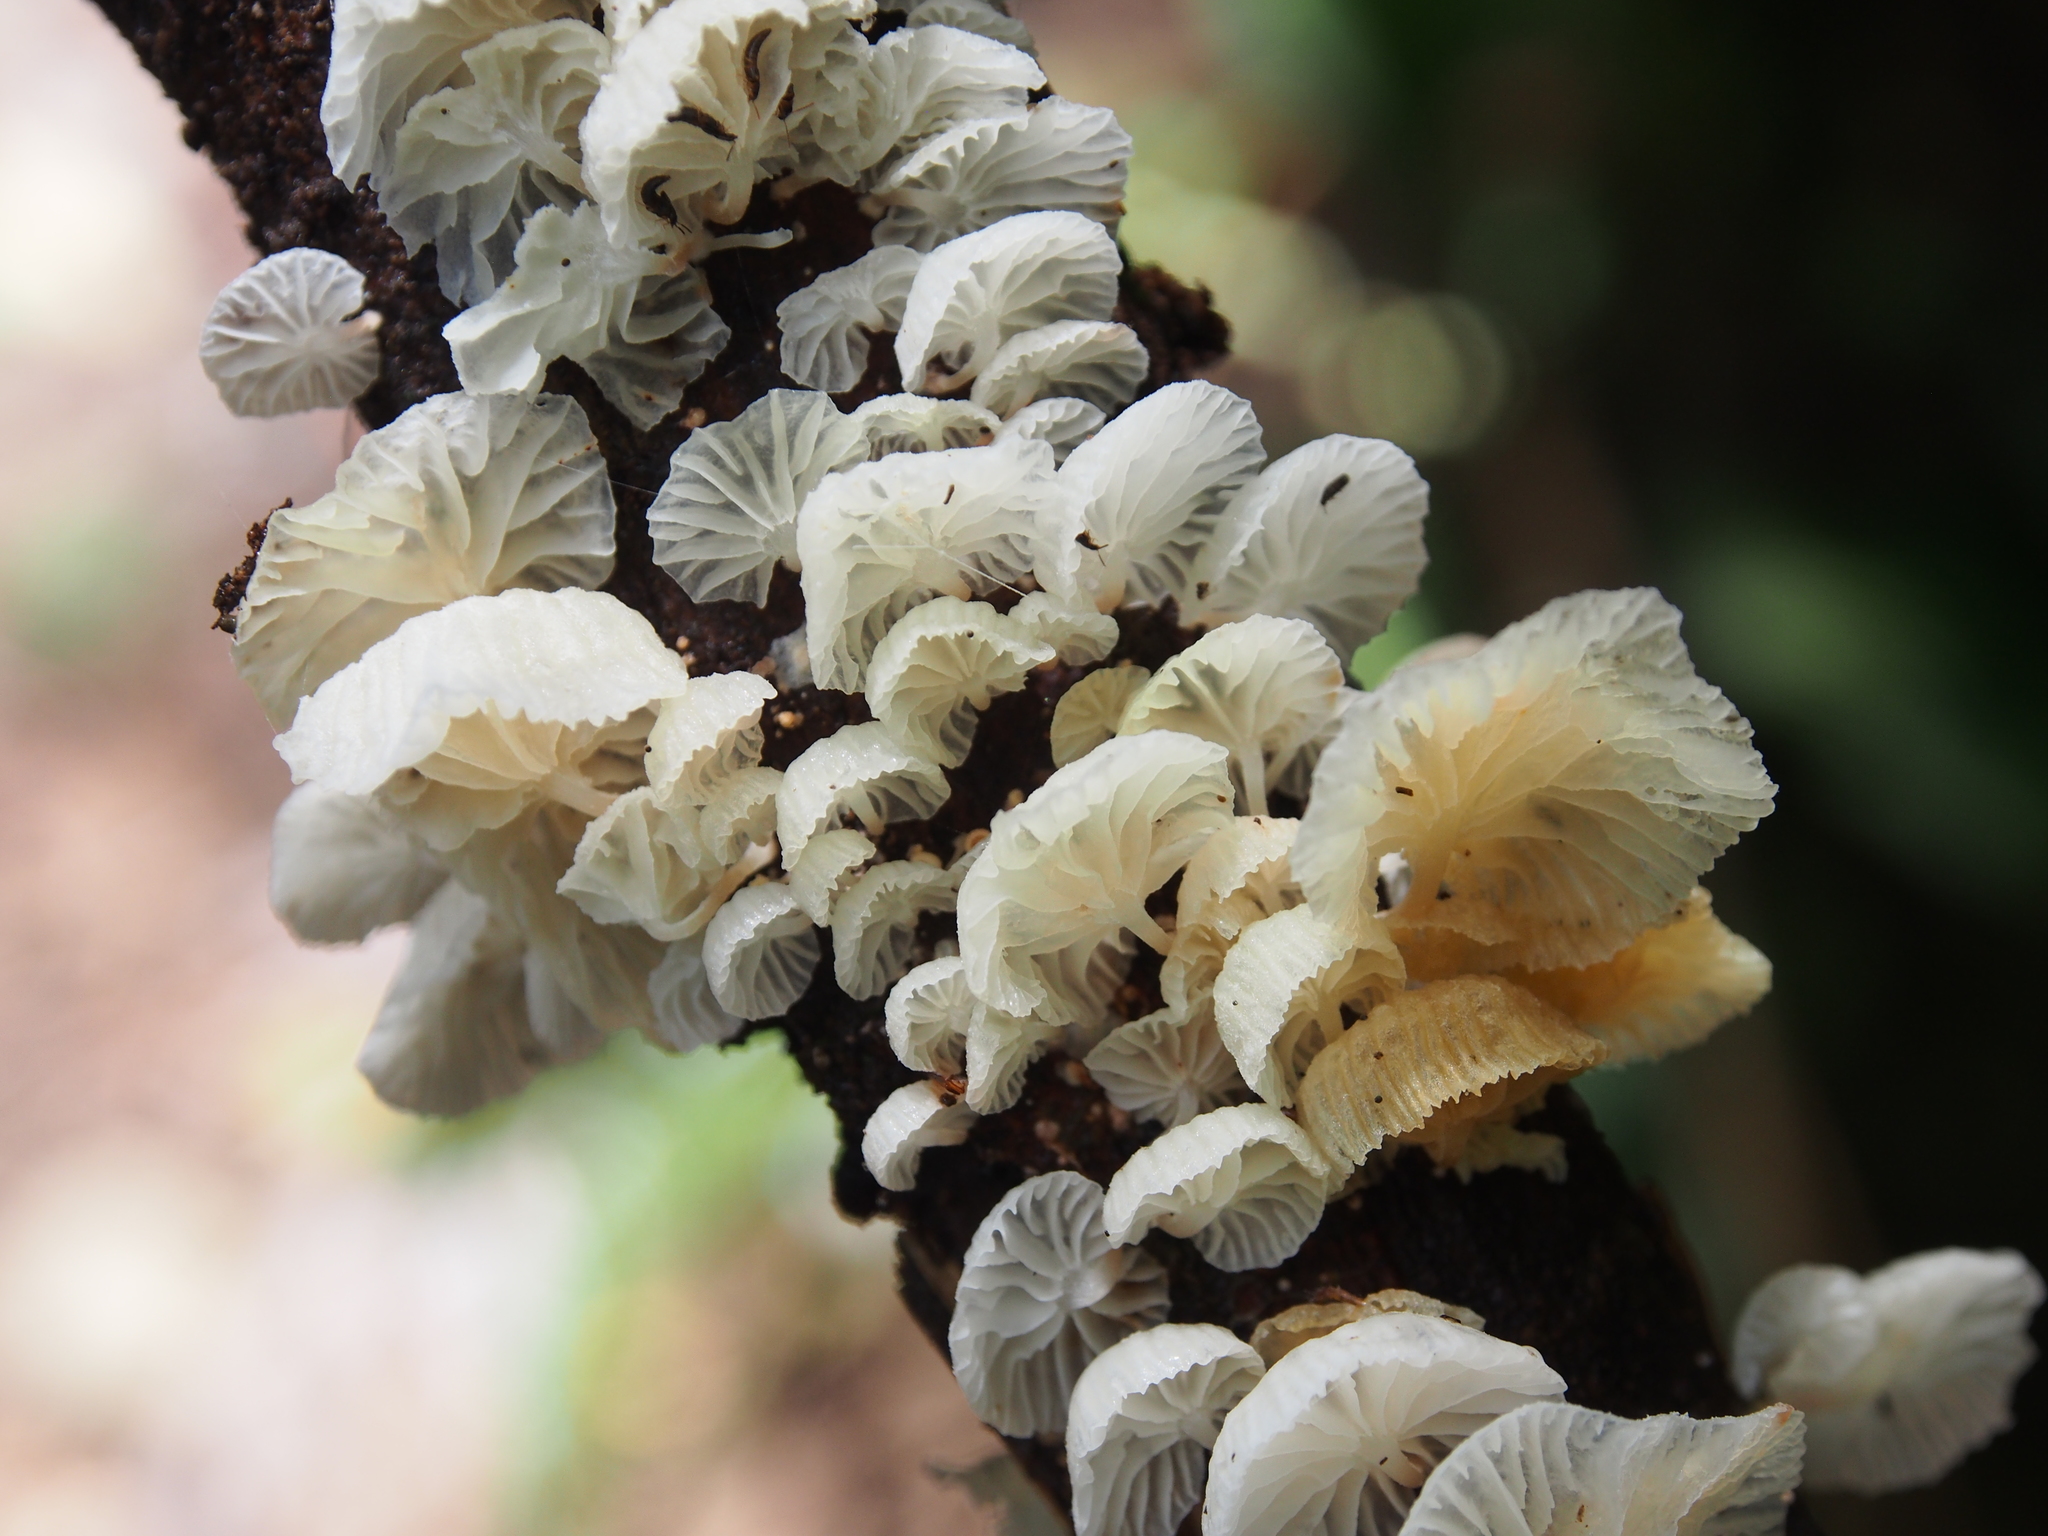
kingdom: Fungi
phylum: Basidiomycota
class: Agaricomycetes
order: Agaricales
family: Omphalotaceae
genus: Marasmiellus
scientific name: Marasmiellus volvatus
